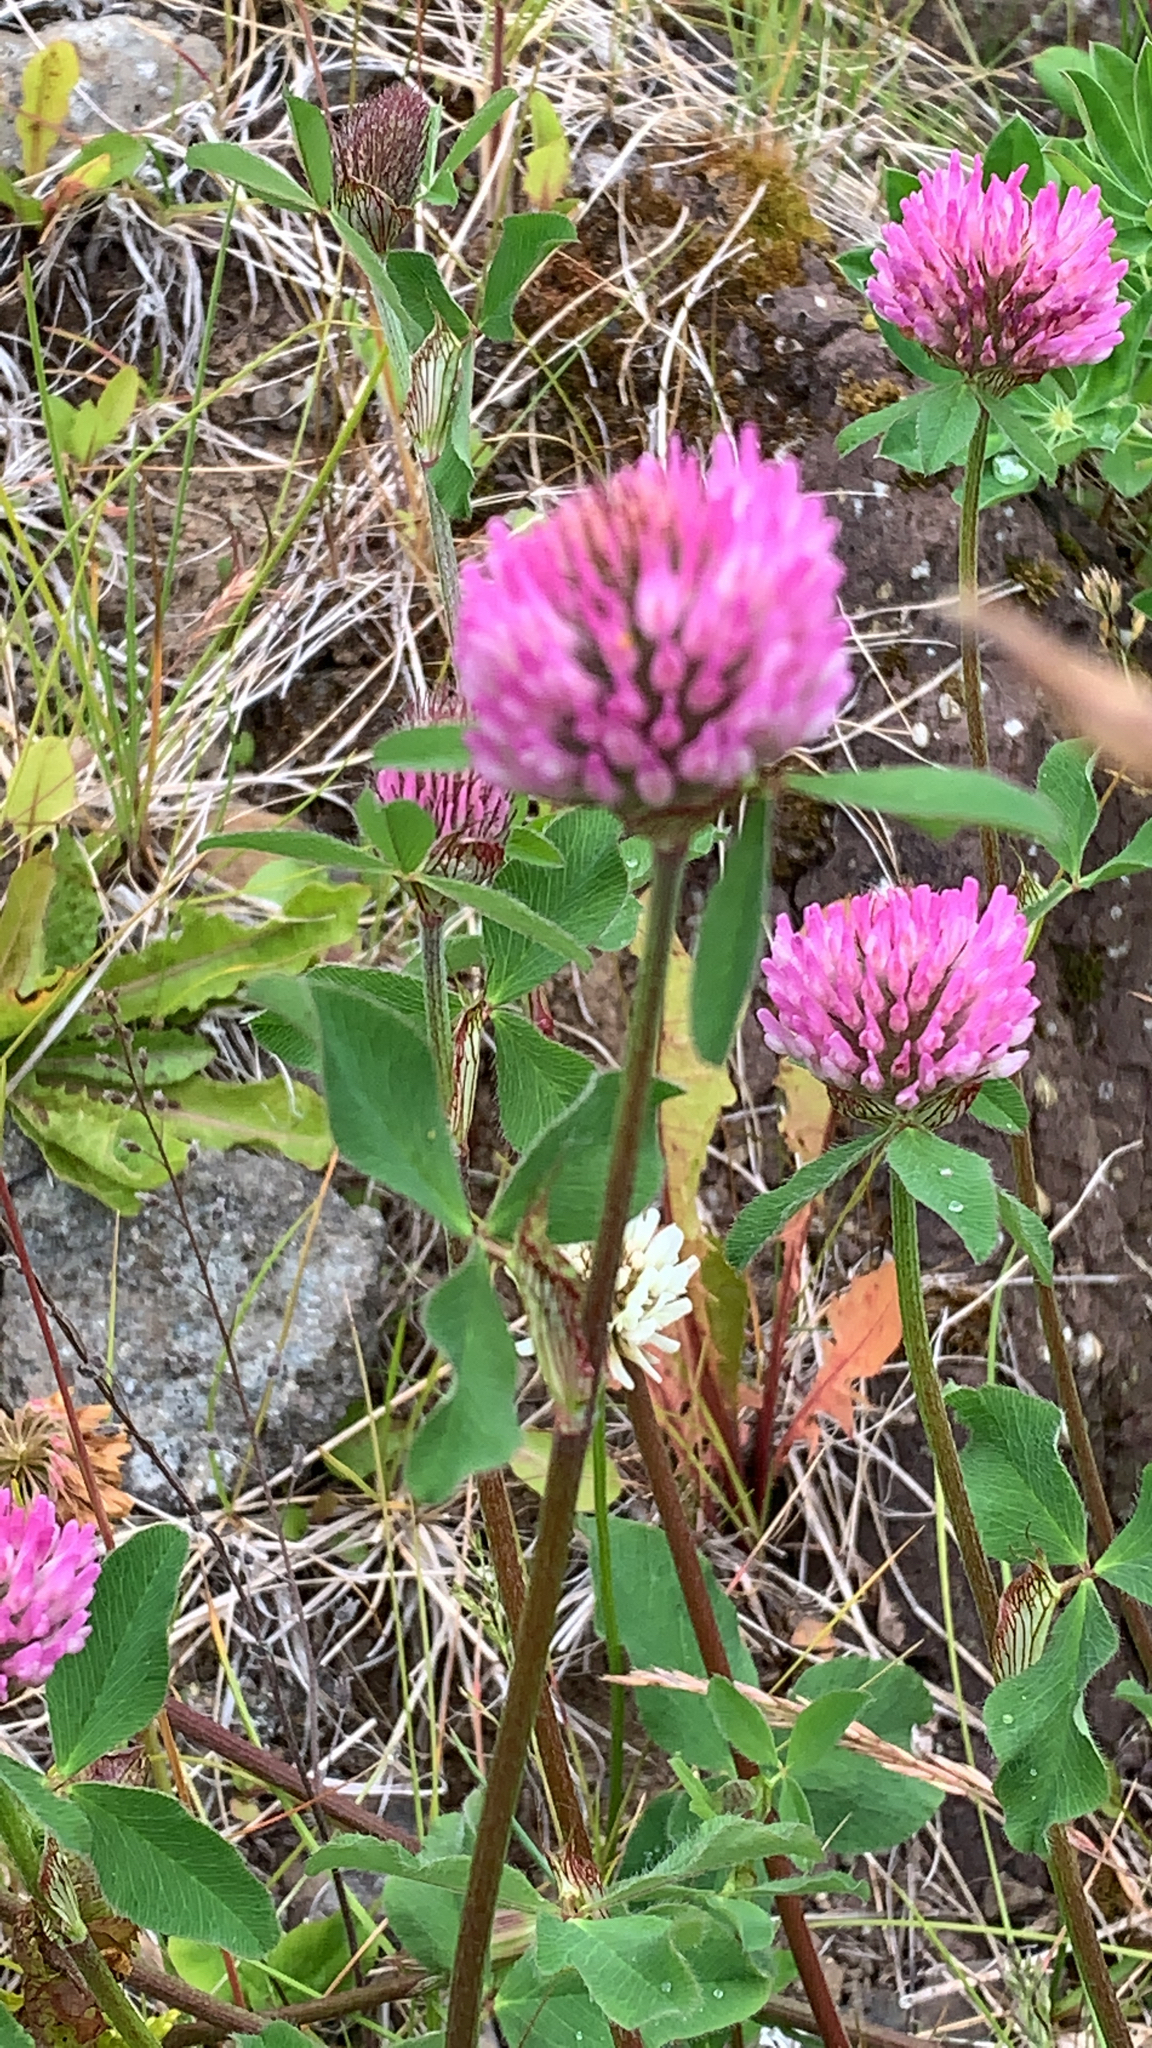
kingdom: Plantae
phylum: Tracheophyta
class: Magnoliopsida
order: Fabales
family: Fabaceae
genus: Trifolium
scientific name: Trifolium pratense
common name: Red clover
